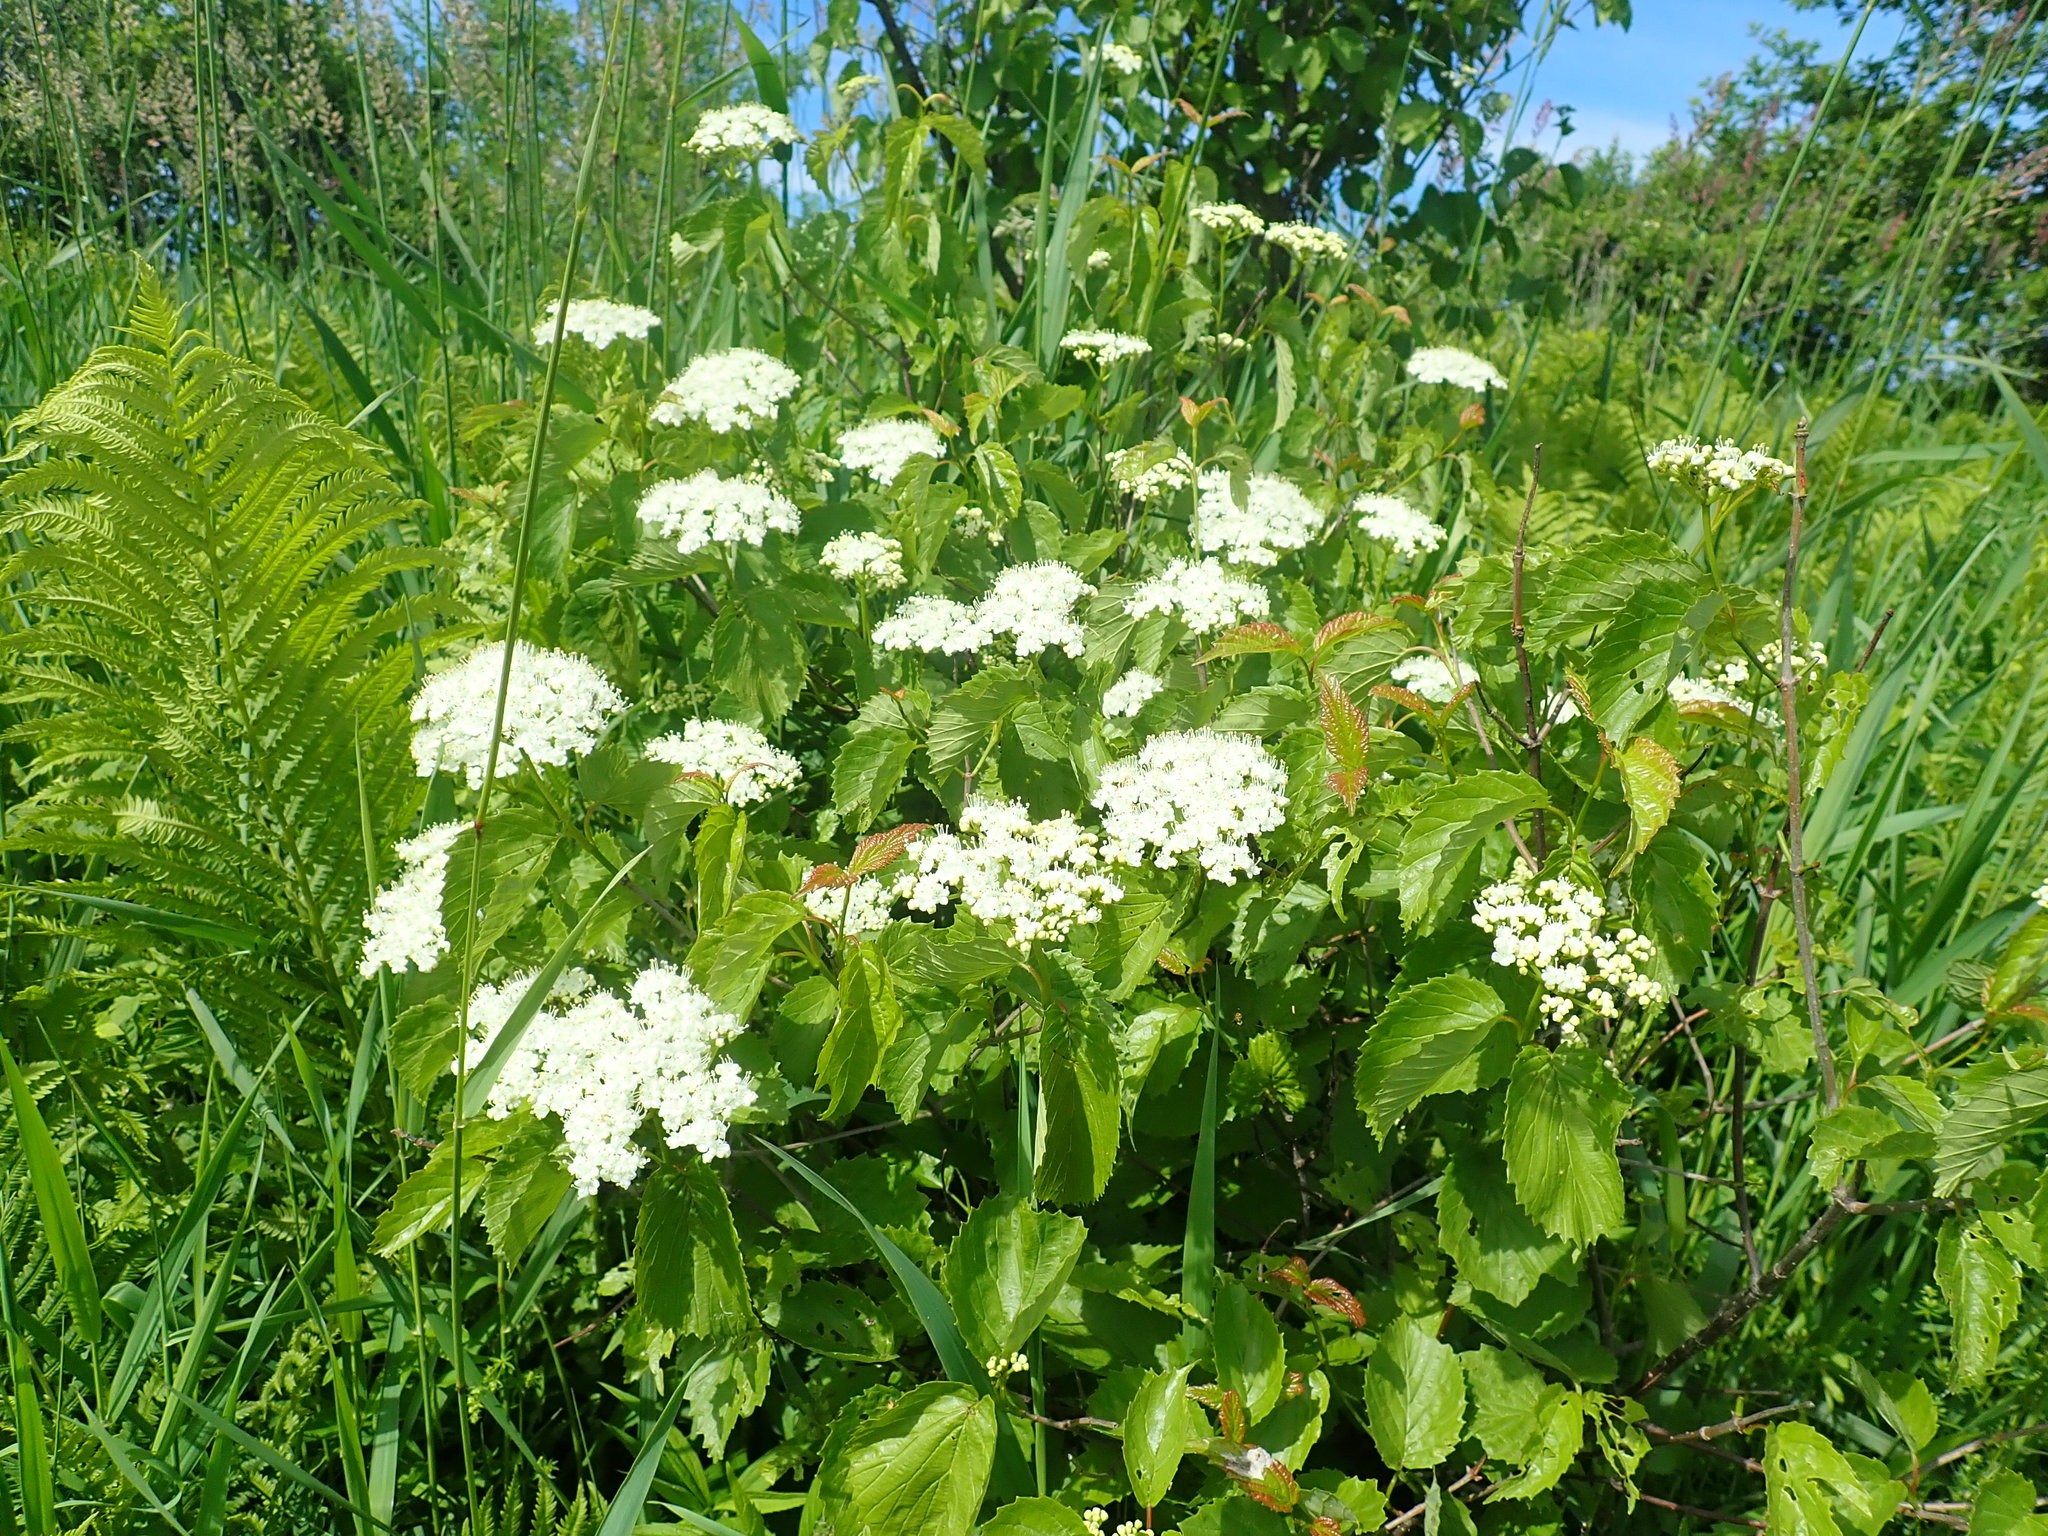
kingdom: Plantae
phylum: Tracheophyta
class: Magnoliopsida
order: Dipsacales
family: Viburnaceae
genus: Viburnum
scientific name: Viburnum dentatum
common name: Arrow-wood
